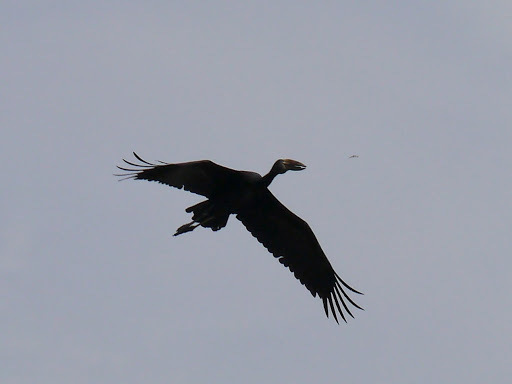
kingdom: Animalia
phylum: Chordata
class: Aves
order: Ciconiiformes
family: Ciconiidae
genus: Anastomus
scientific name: Anastomus lamelligerus
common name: African openbill
